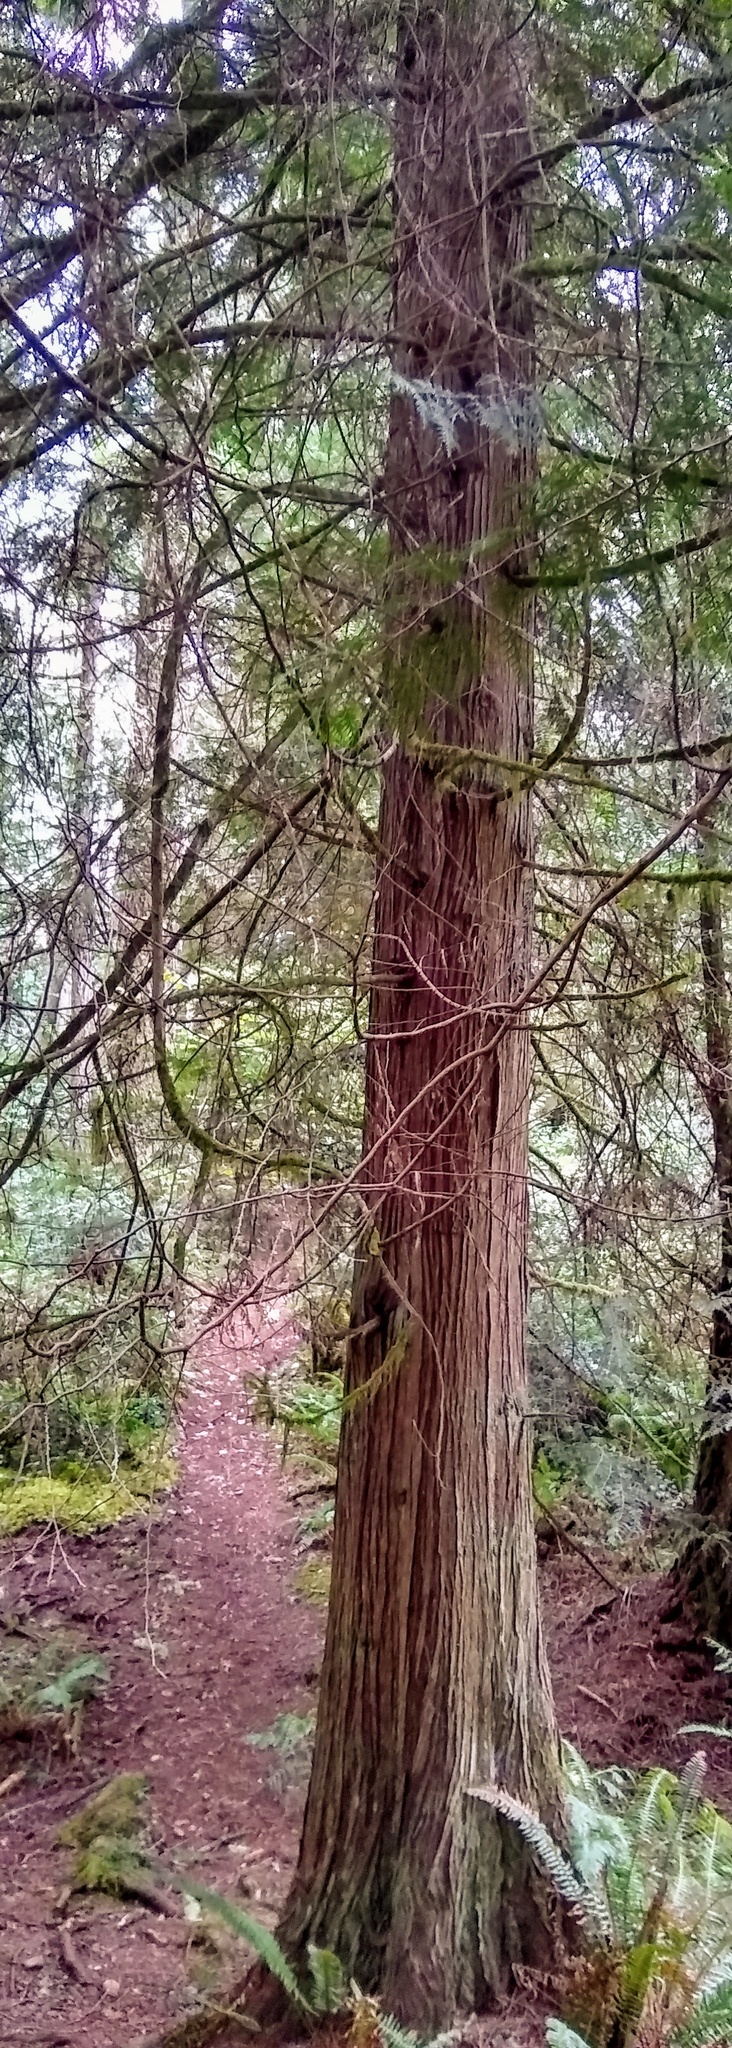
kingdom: Plantae
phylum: Tracheophyta
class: Pinopsida
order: Pinales
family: Cupressaceae
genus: Thuja
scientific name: Thuja plicata
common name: Western red-cedar
